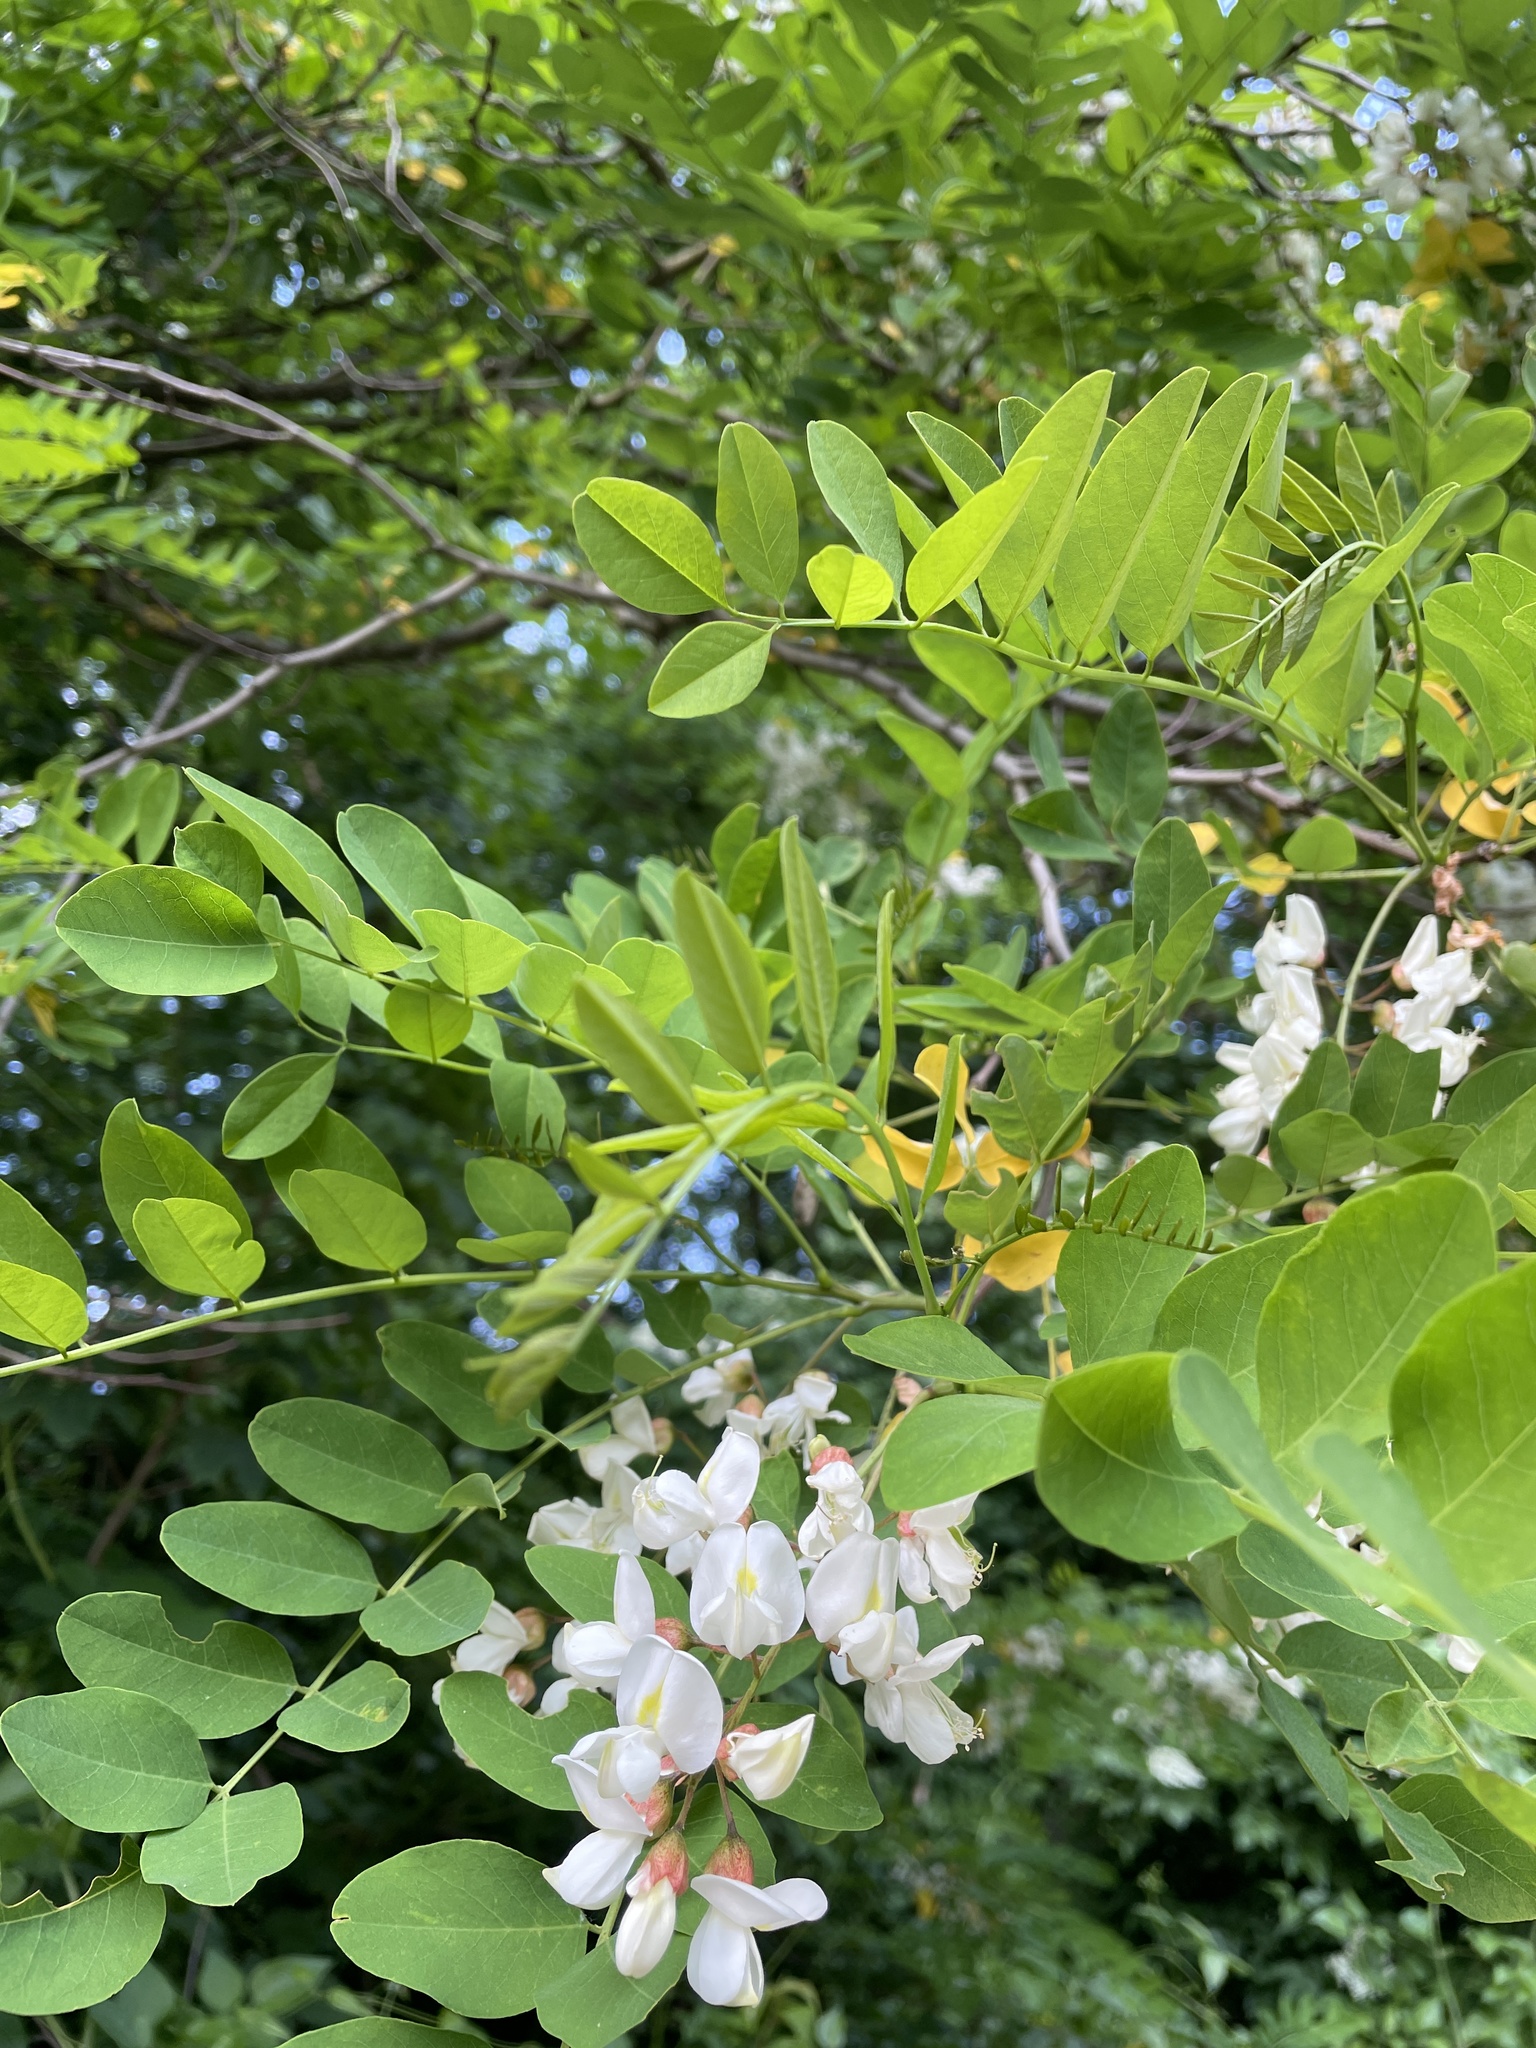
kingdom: Plantae
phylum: Tracheophyta
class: Magnoliopsida
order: Fabales
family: Fabaceae
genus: Robinia
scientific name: Robinia pseudoacacia
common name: Black locust
